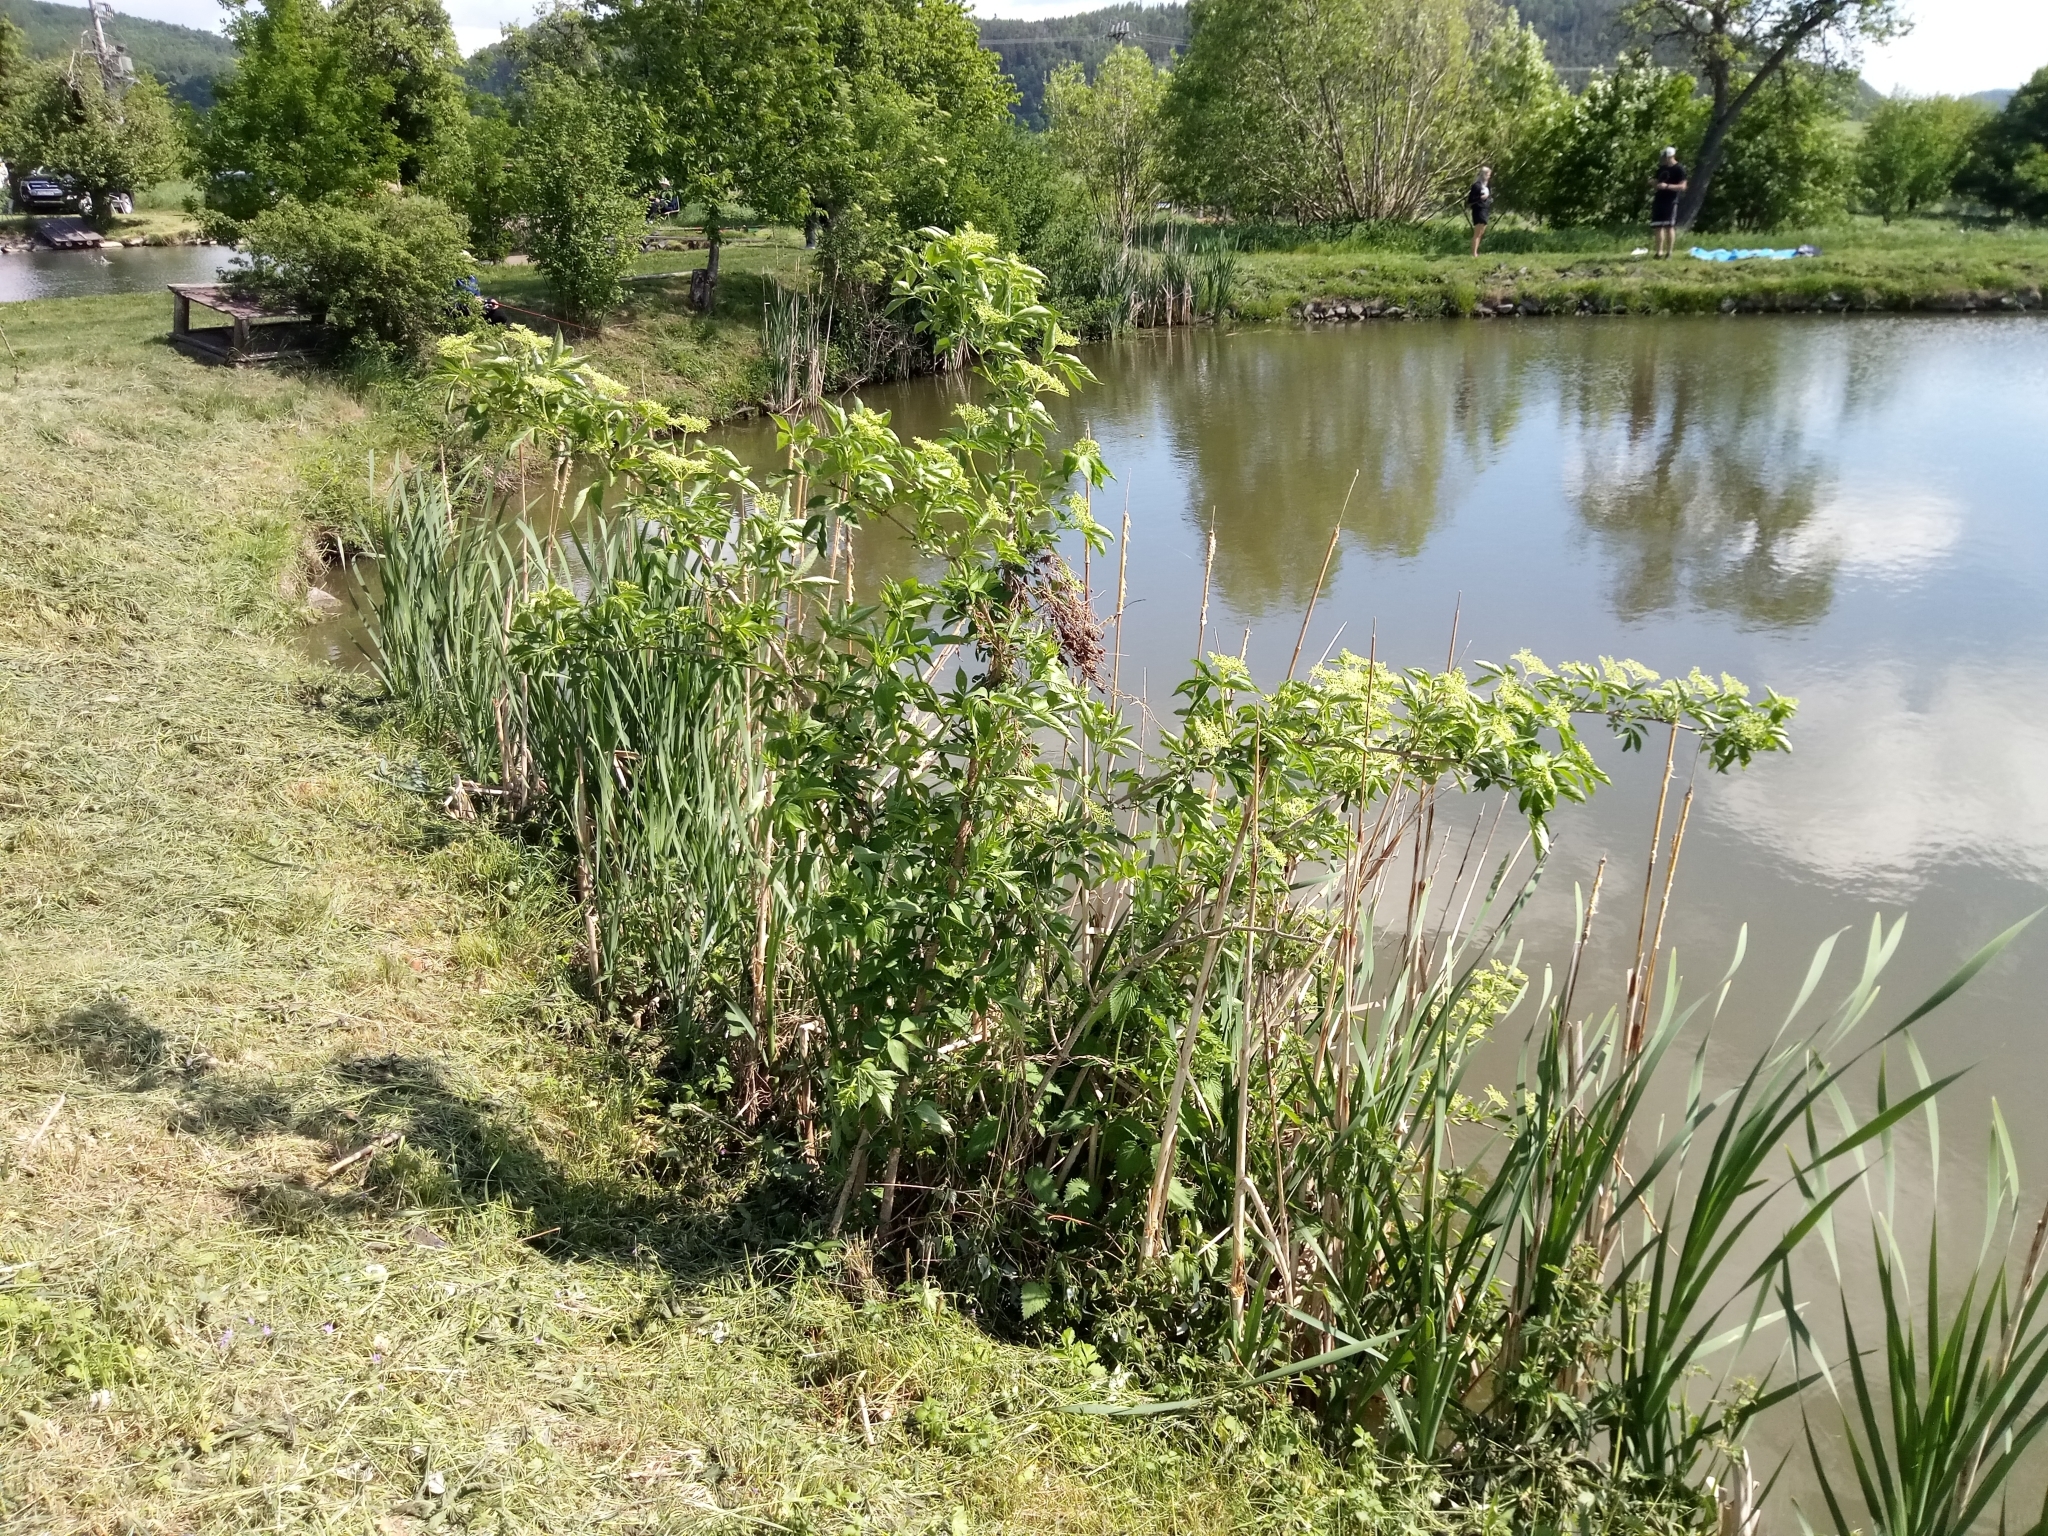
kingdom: Plantae
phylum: Tracheophyta
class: Magnoliopsida
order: Dipsacales
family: Viburnaceae
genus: Sambucus
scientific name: Sambucus nigra
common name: Elder
